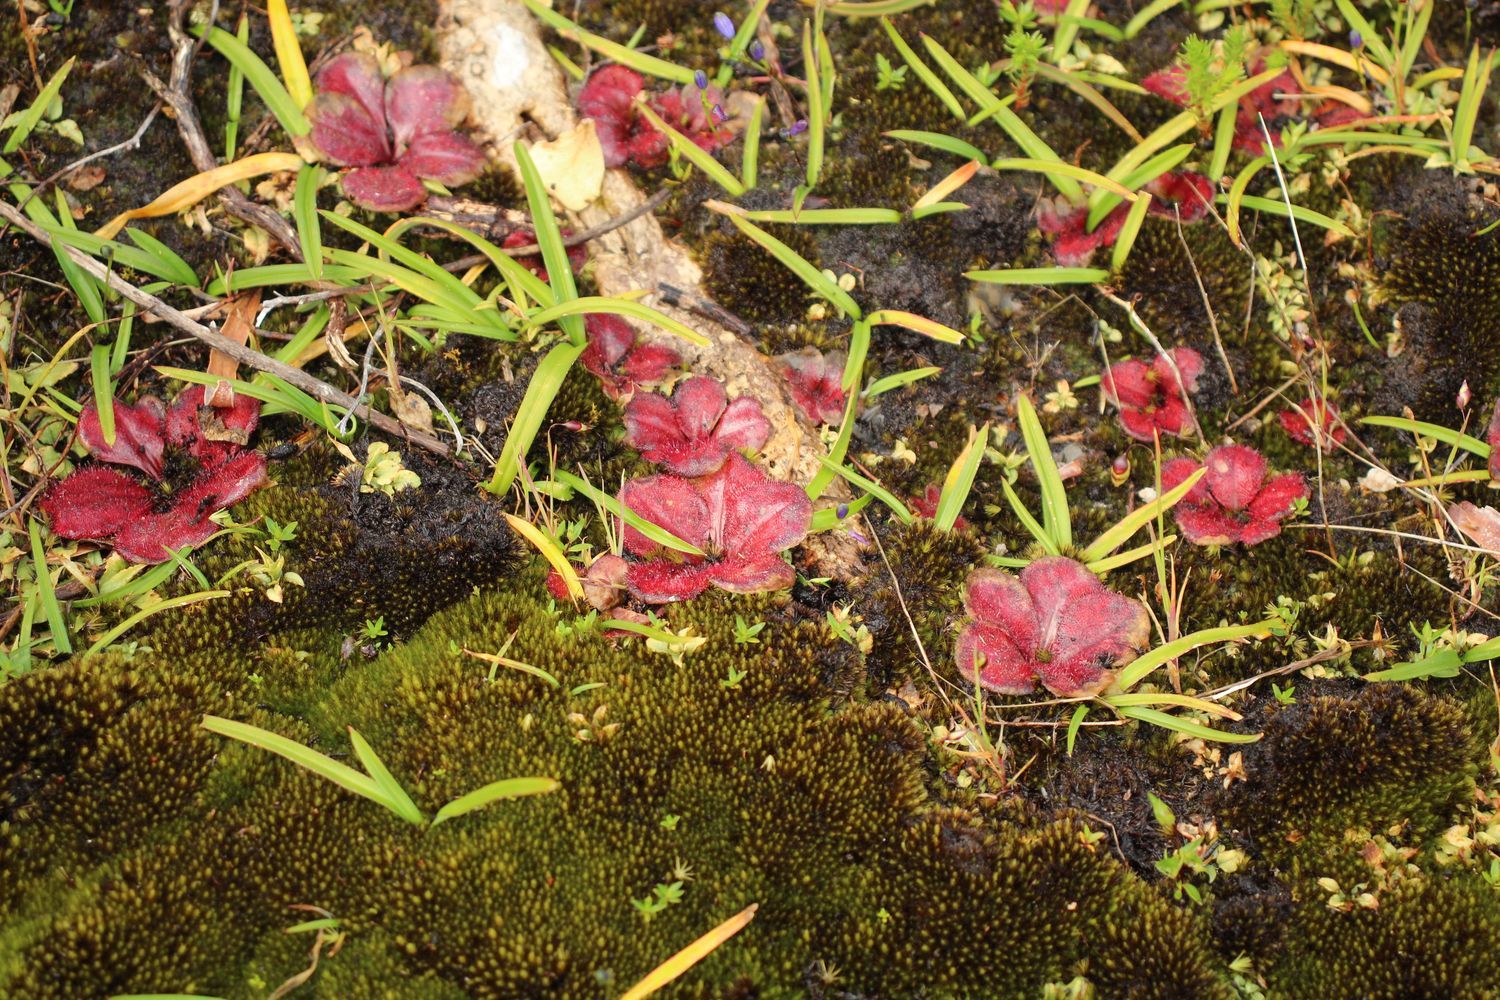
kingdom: Plantae
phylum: Tracheophyta
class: Magnoliopsida
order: Caryophyllales
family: Droseraceae
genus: Drosera
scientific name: Drosera erythrorhiza
